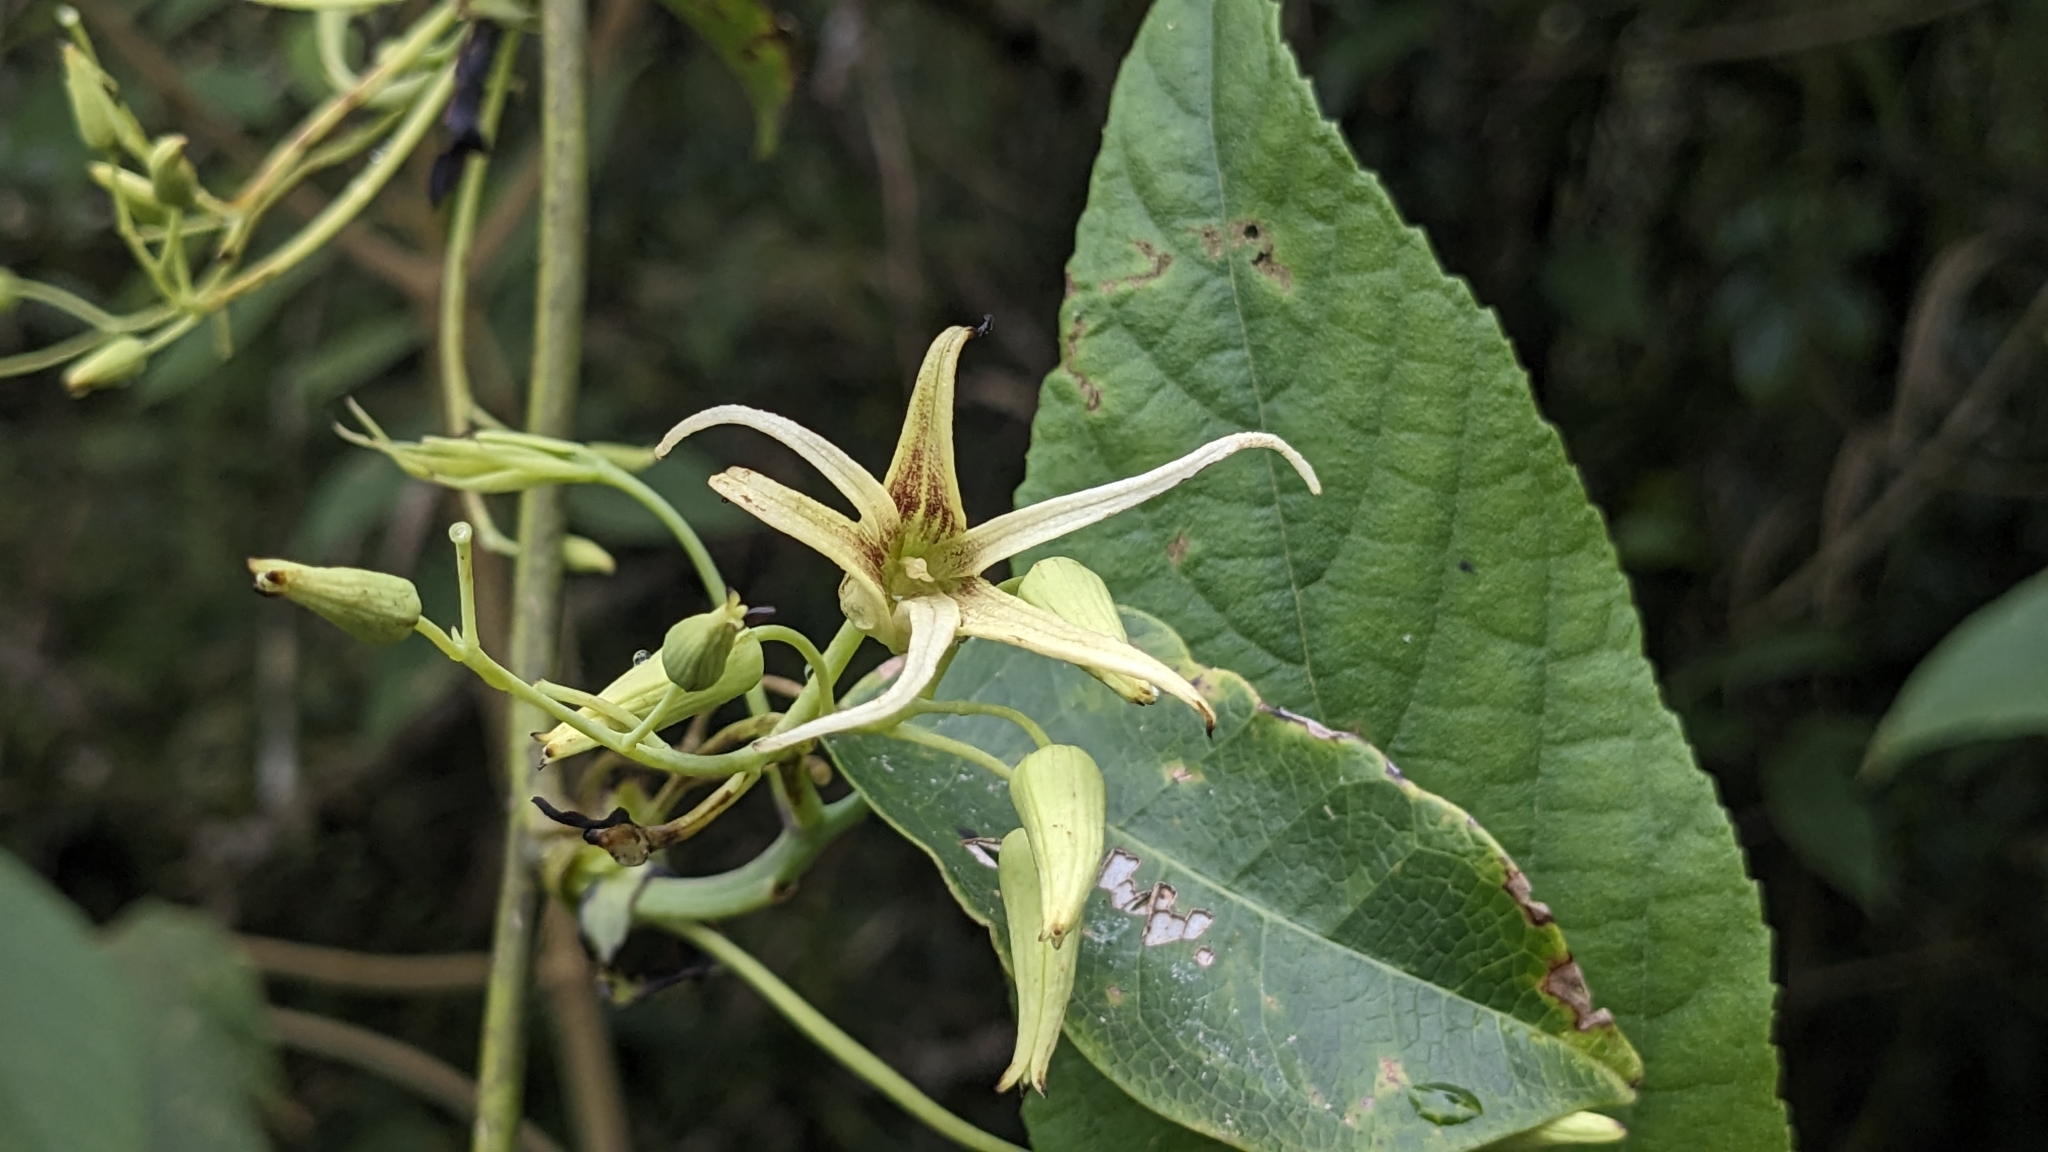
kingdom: Plantae
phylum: Tracheophyta
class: Magnoliopsida
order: Ranunculales
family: Lardizabalaceae
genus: Stauntonia
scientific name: Stauntonia obovatifoliola
